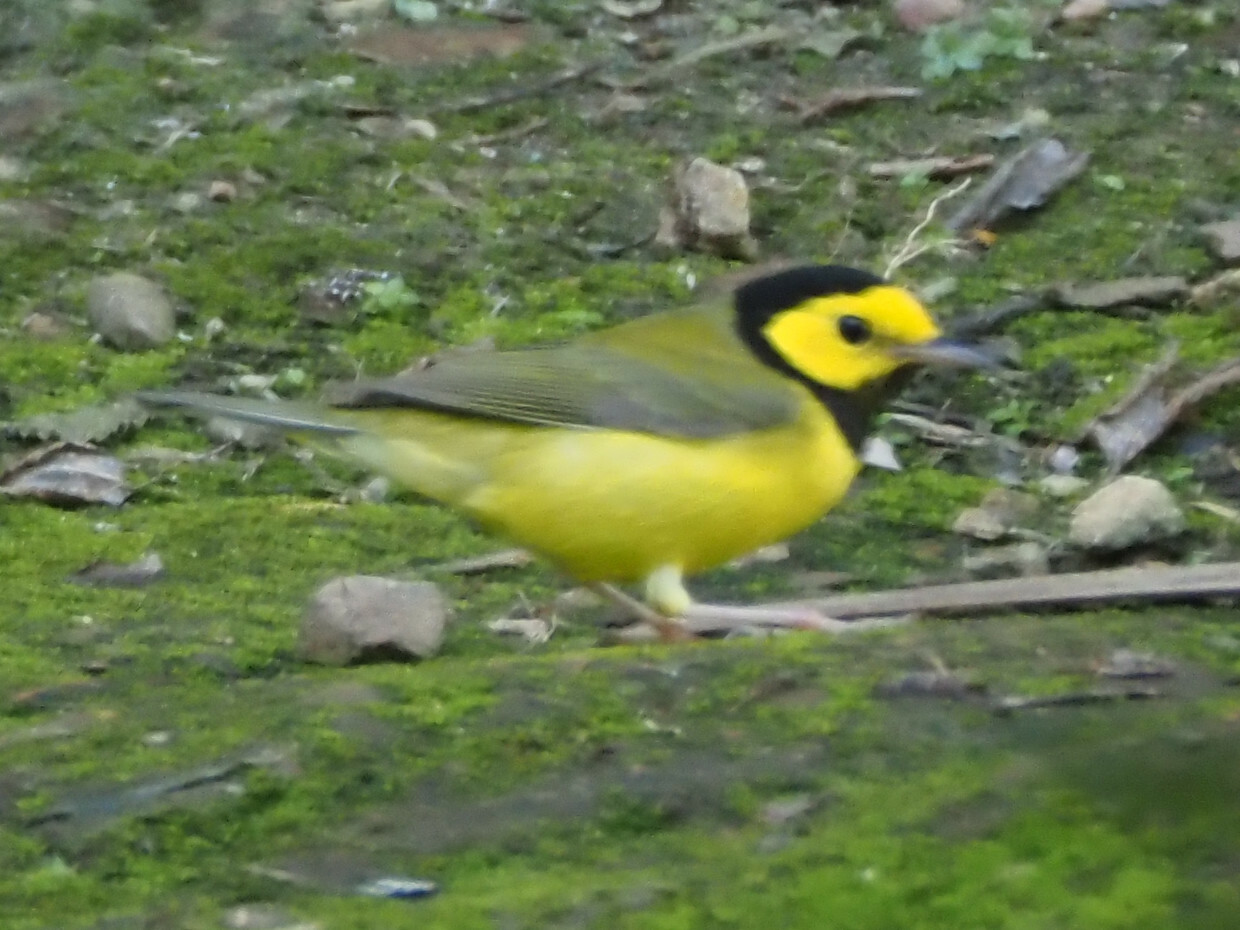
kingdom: Animalia
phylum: Chordata
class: Aves
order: Passeriformes
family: Parulidae
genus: Setophaga
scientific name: Setophaga citrina
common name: Hooded warbler
